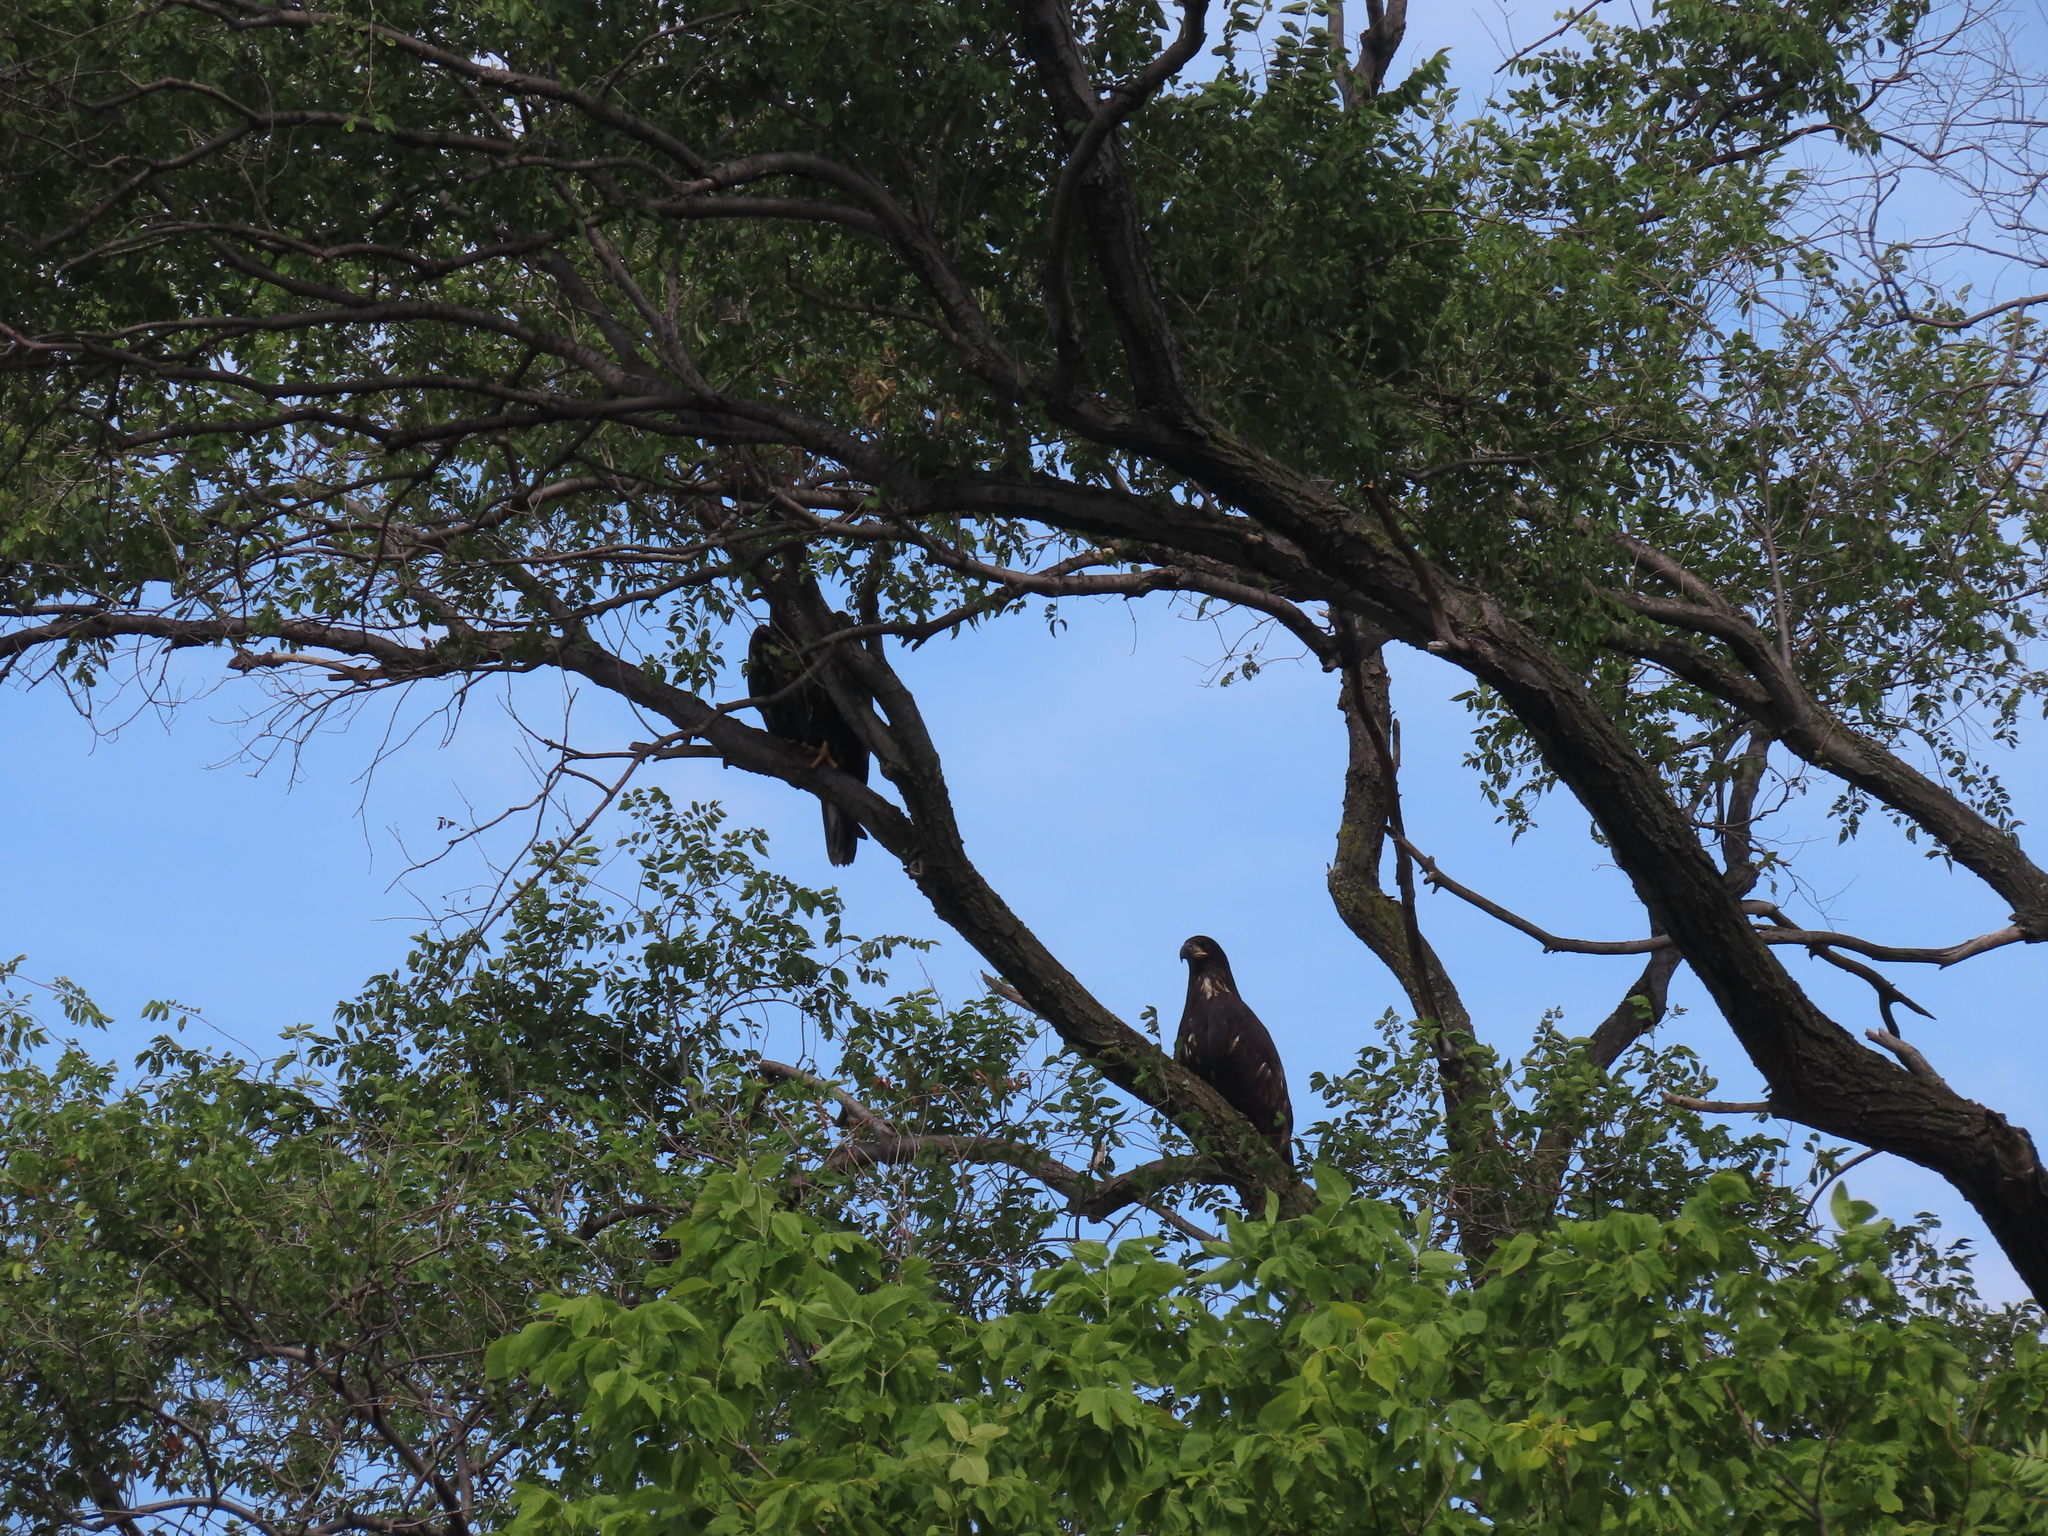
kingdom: Animalia
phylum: Chordata
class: Aves
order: Accipitriformes
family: Accipitridae
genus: Haliaeetus
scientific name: Haliaeetus leucocephalus
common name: Bald eagle
